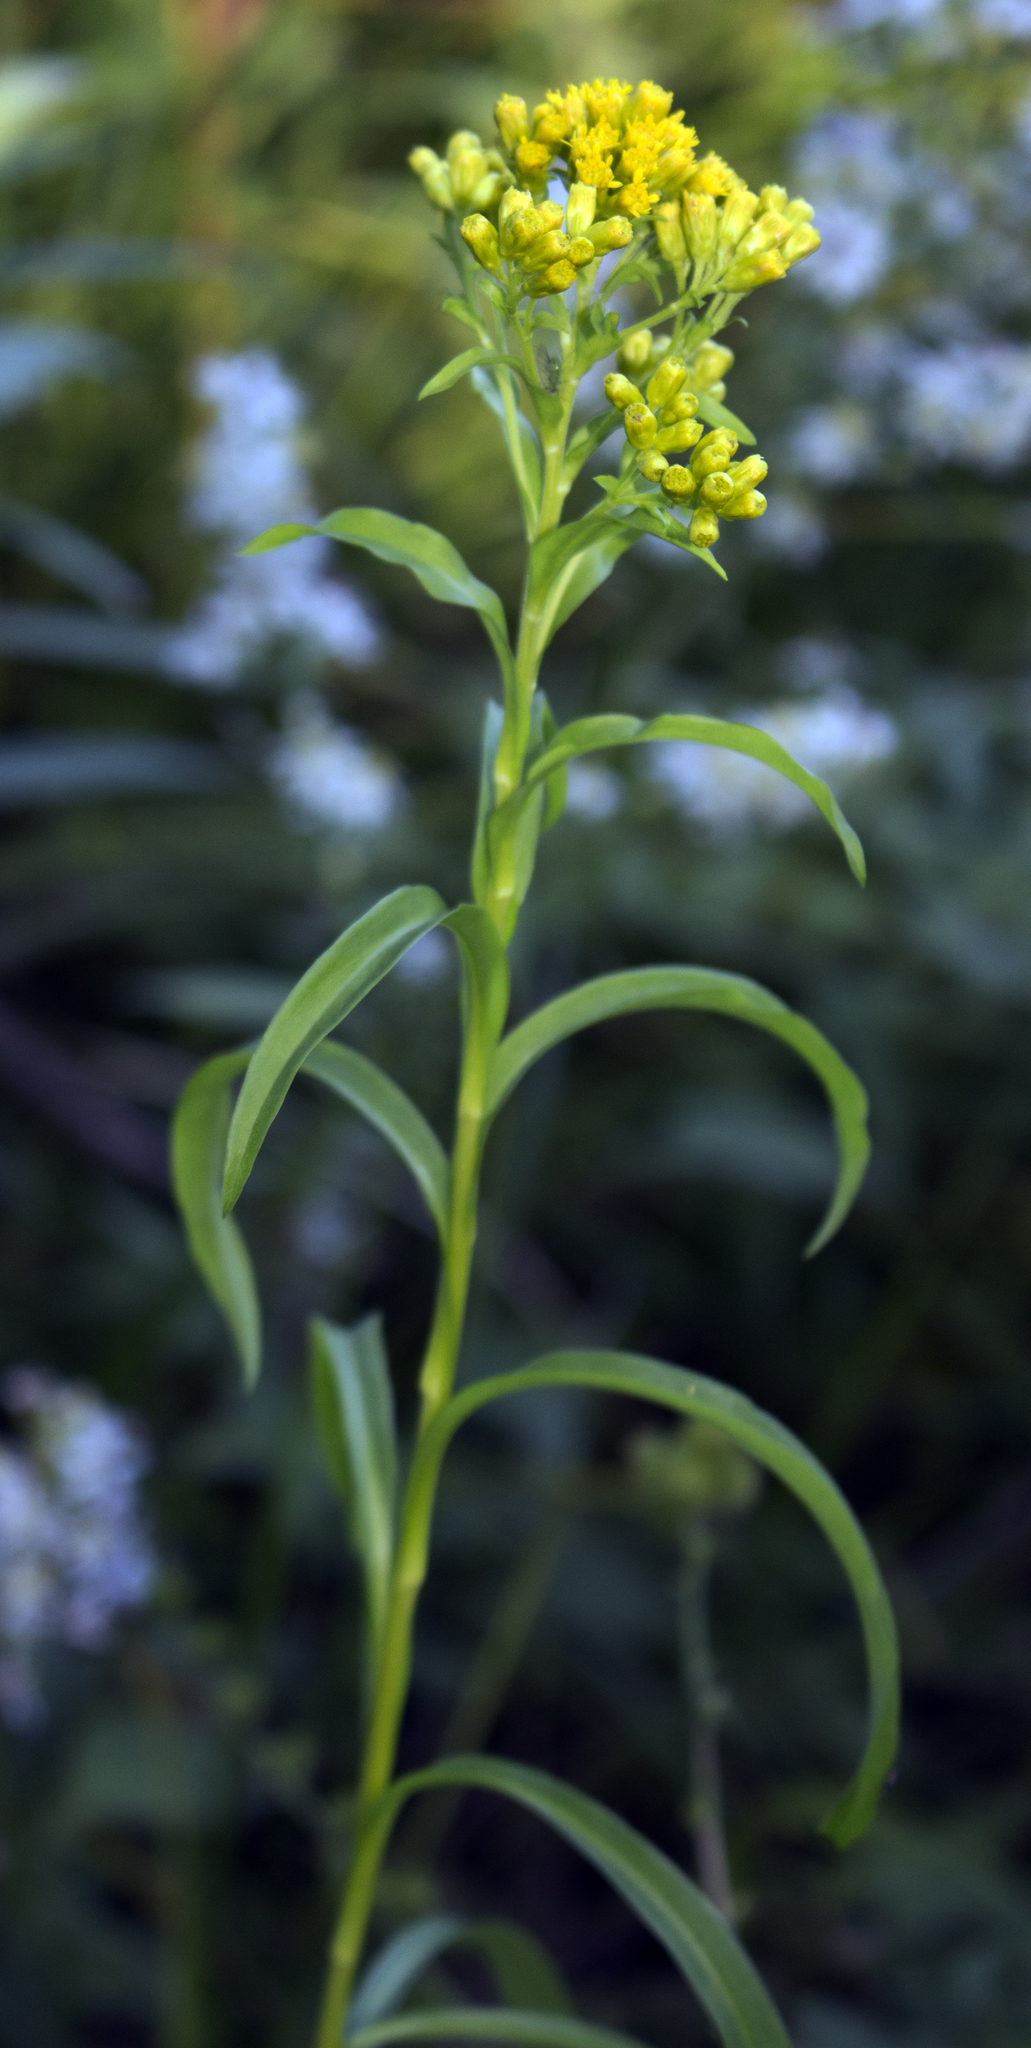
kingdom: Plantae
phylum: Tracheophyta
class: Magnoliopsida
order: Asterales
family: Asteraceae
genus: Solidago
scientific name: Solidago riddellii
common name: Riddell's goldenrod
